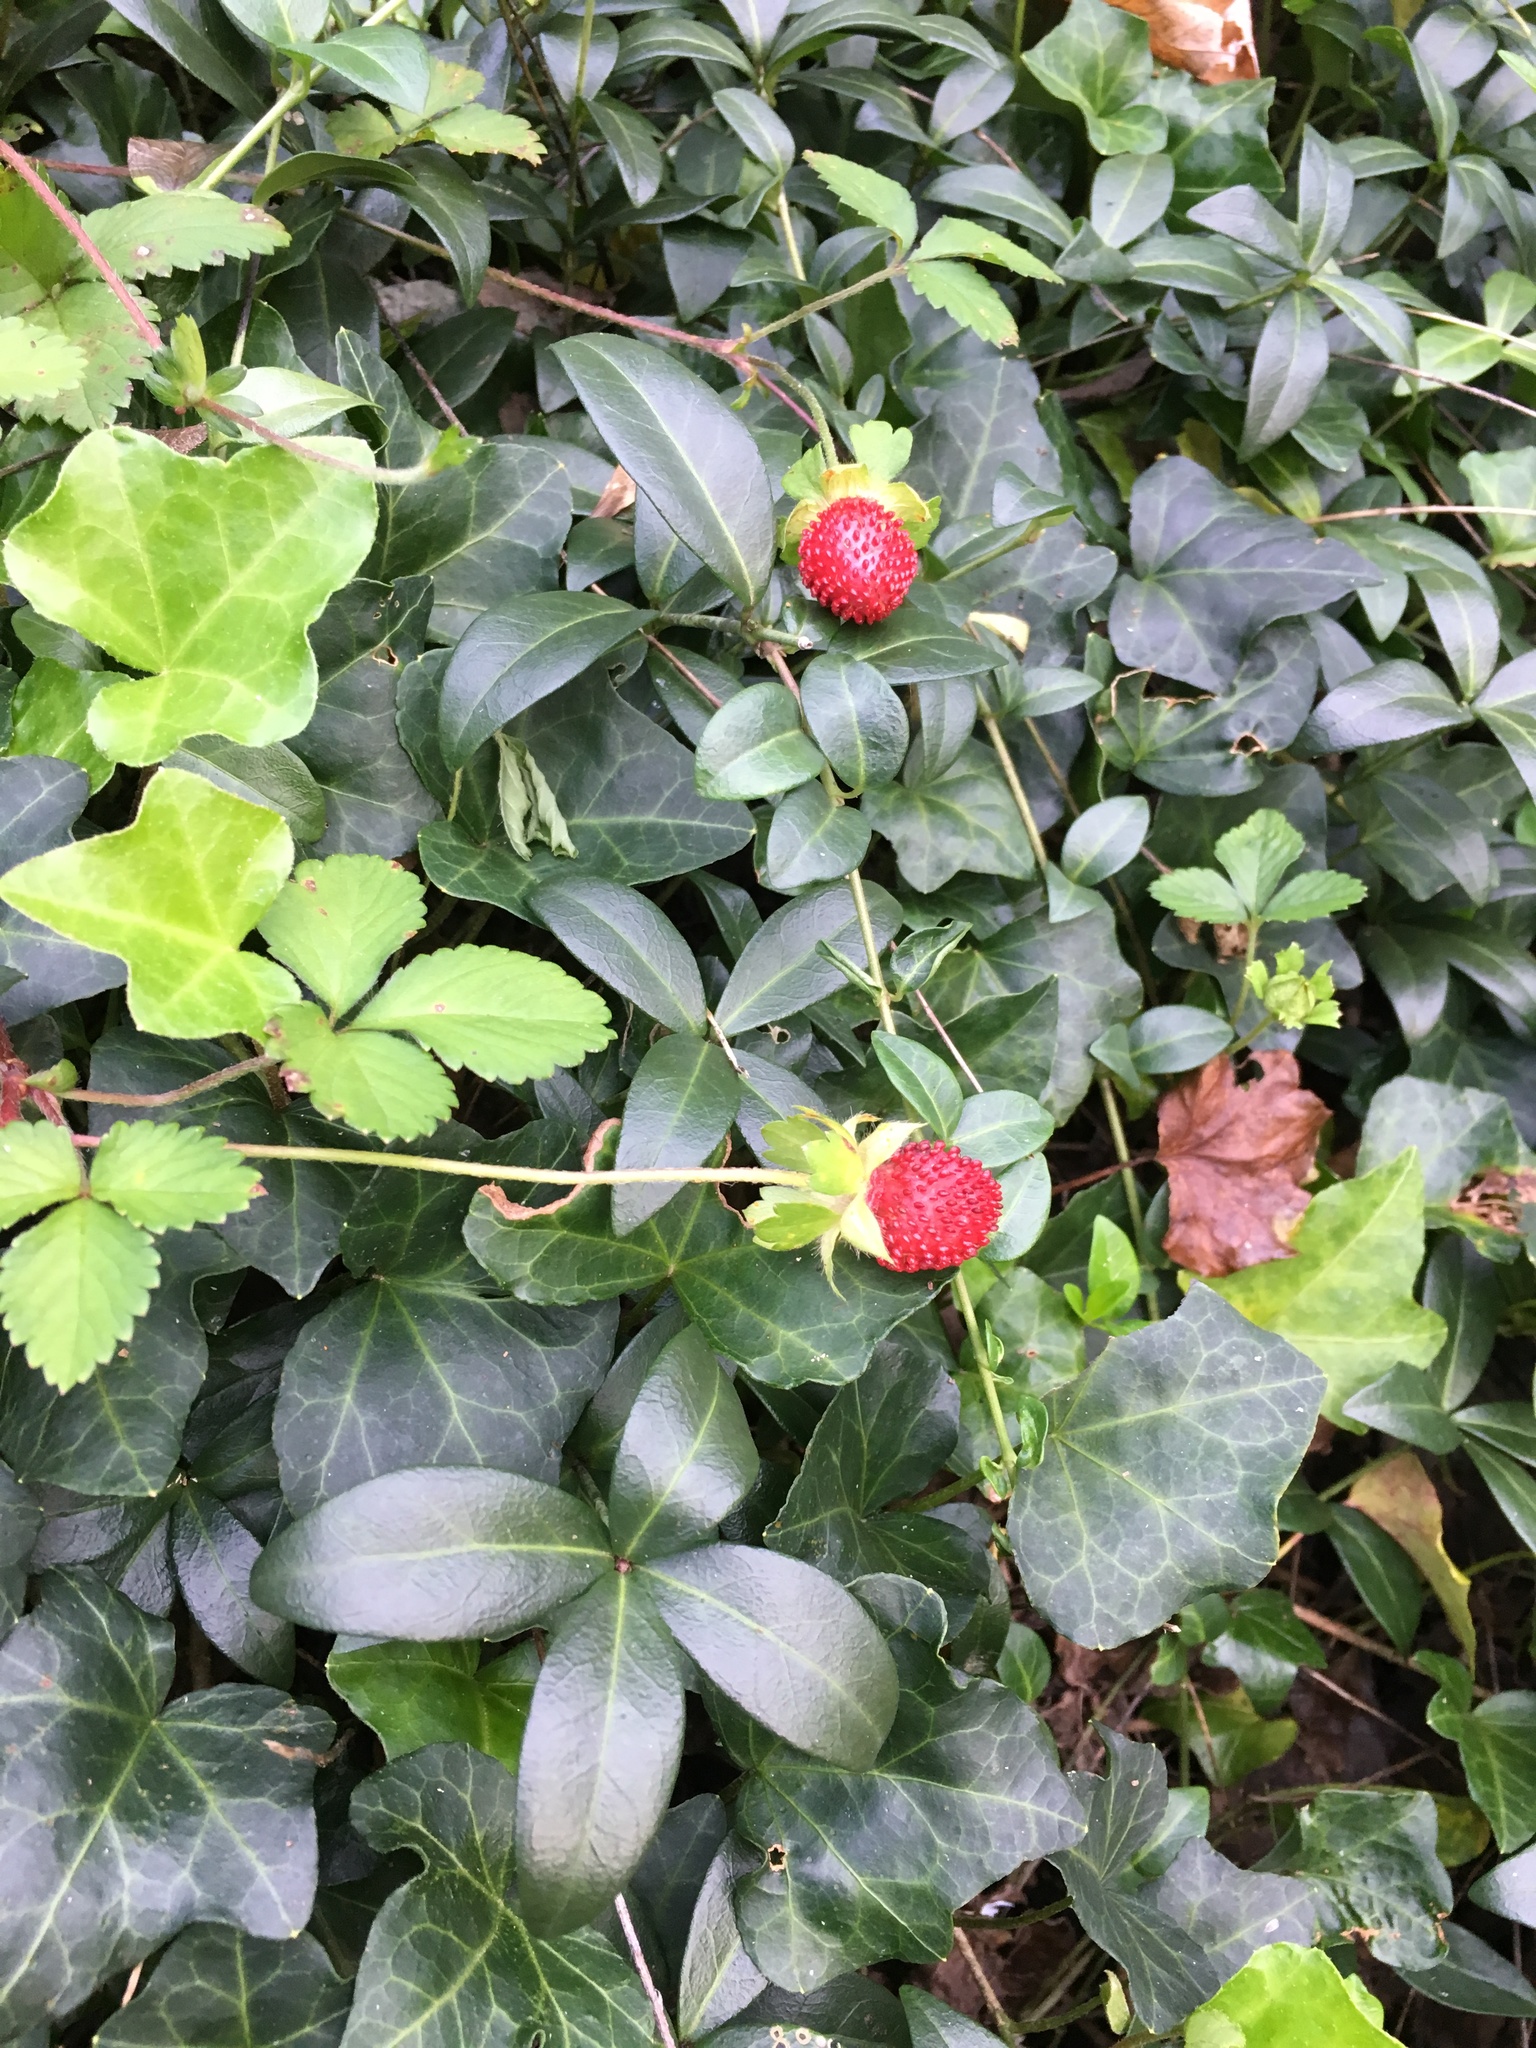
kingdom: Plantae
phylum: Tracheophyta
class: Magnoliopsida
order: Rosales
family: Rosaceae
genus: Potentilla
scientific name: Potentilla indica
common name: Yellow-flowered strawberry
